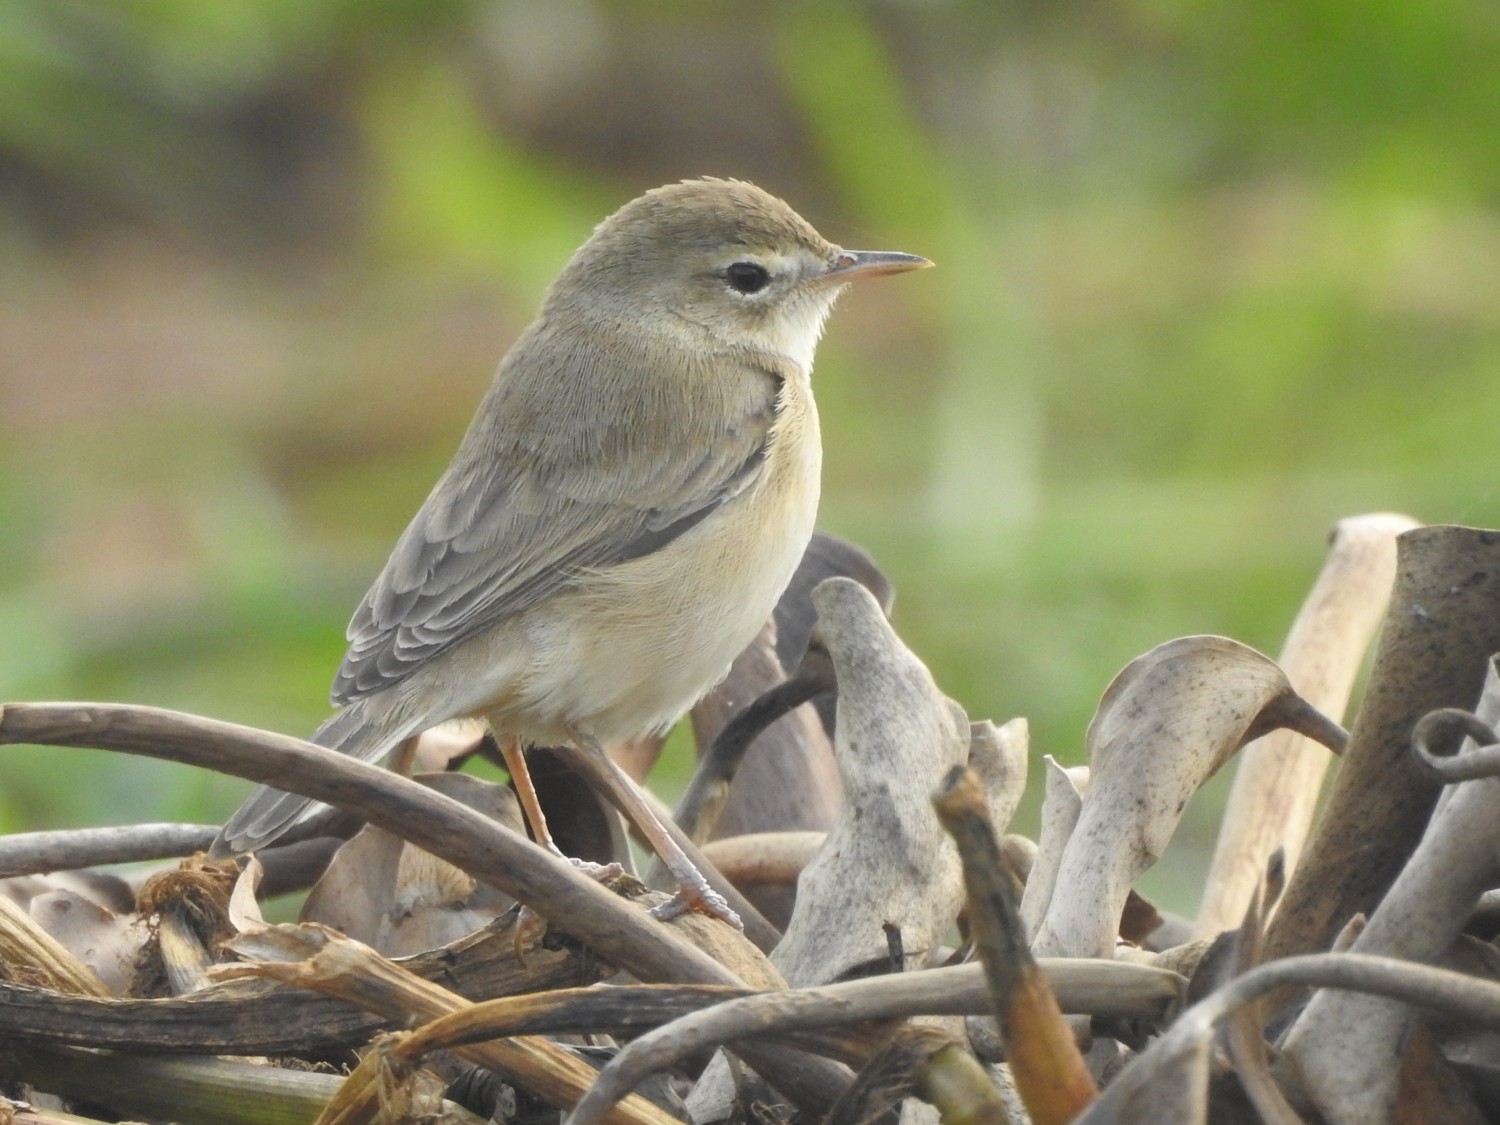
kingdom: Animalia
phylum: Chordata
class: Aves
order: Passeriformes
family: Acrocephalidae
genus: Iduna
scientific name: Iduna caligata
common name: Booted warbler
